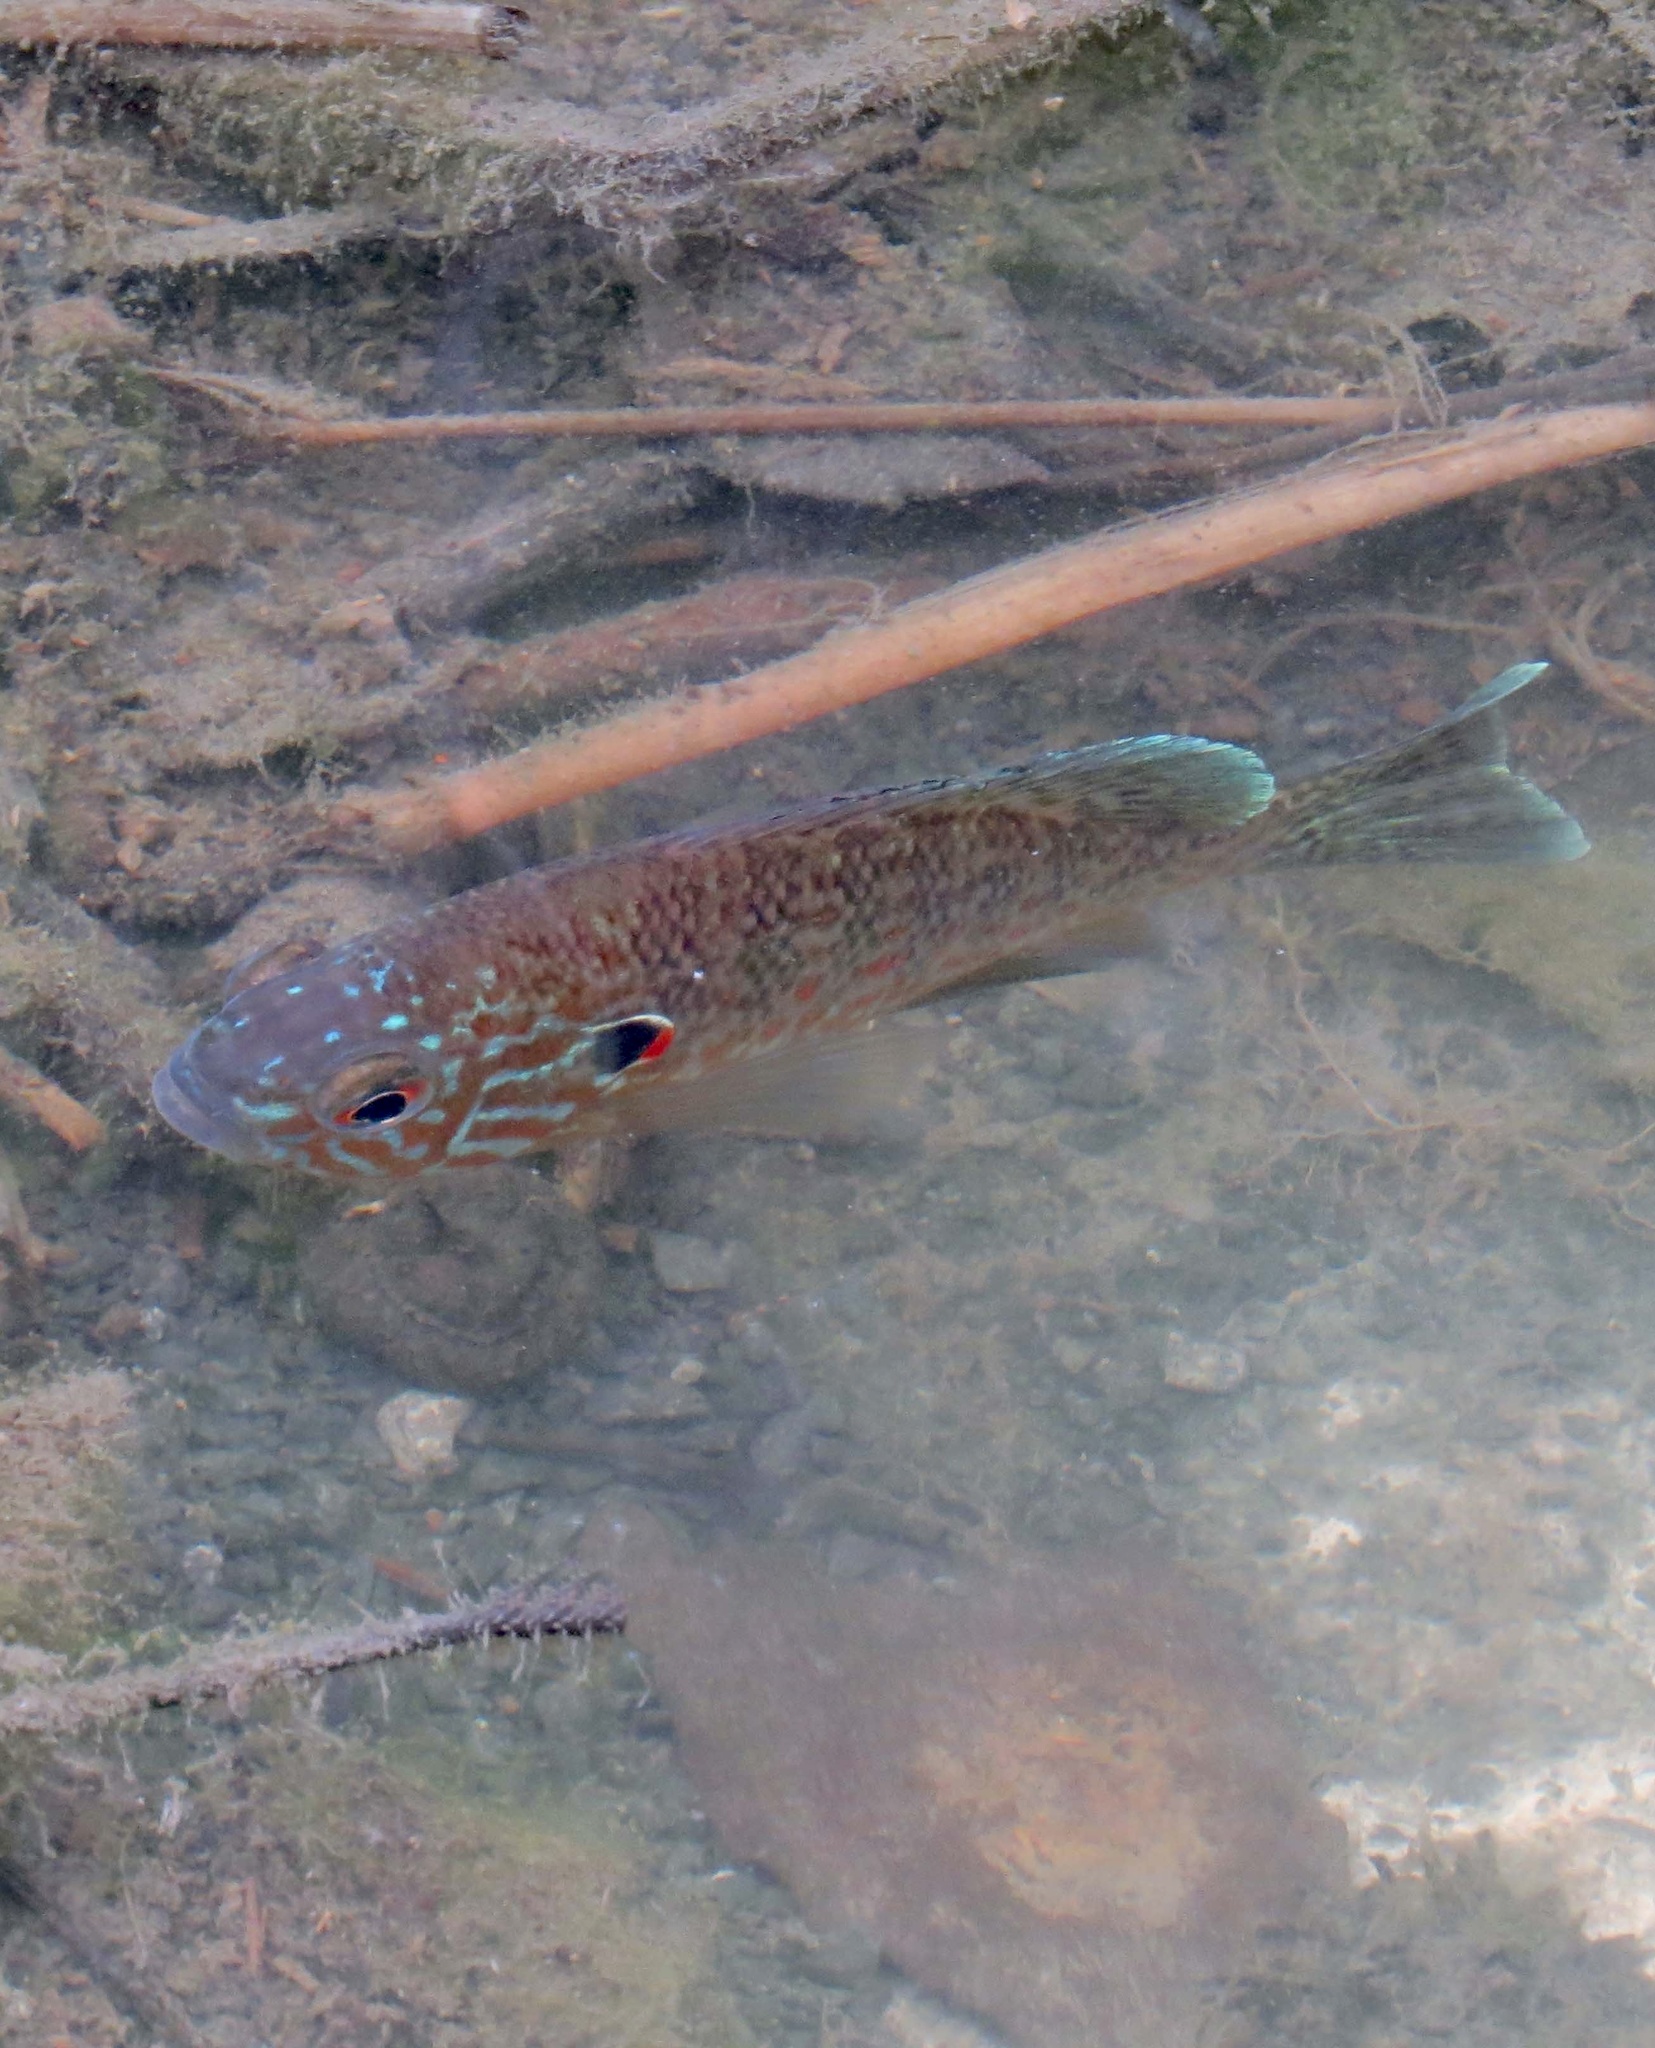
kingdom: Animalia
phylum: Chordata
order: Perciformes
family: Centrarchidae
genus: Lepomis
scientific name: Lepomis gibbosus
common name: Pumpkinseed
